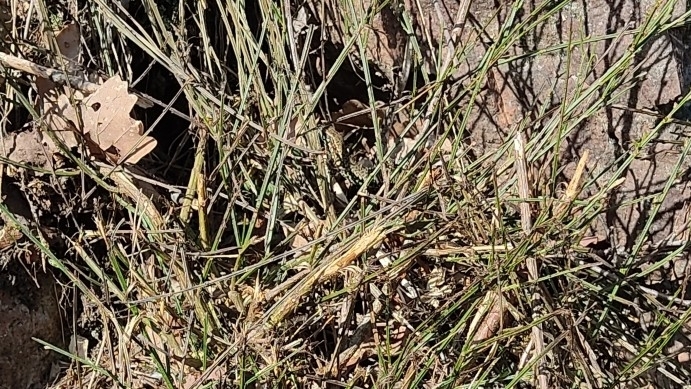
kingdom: Animalia
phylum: Chordata
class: Squamata
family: Lacertidae
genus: Podarcis
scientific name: Podarcis muralis
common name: Common wall lizard
